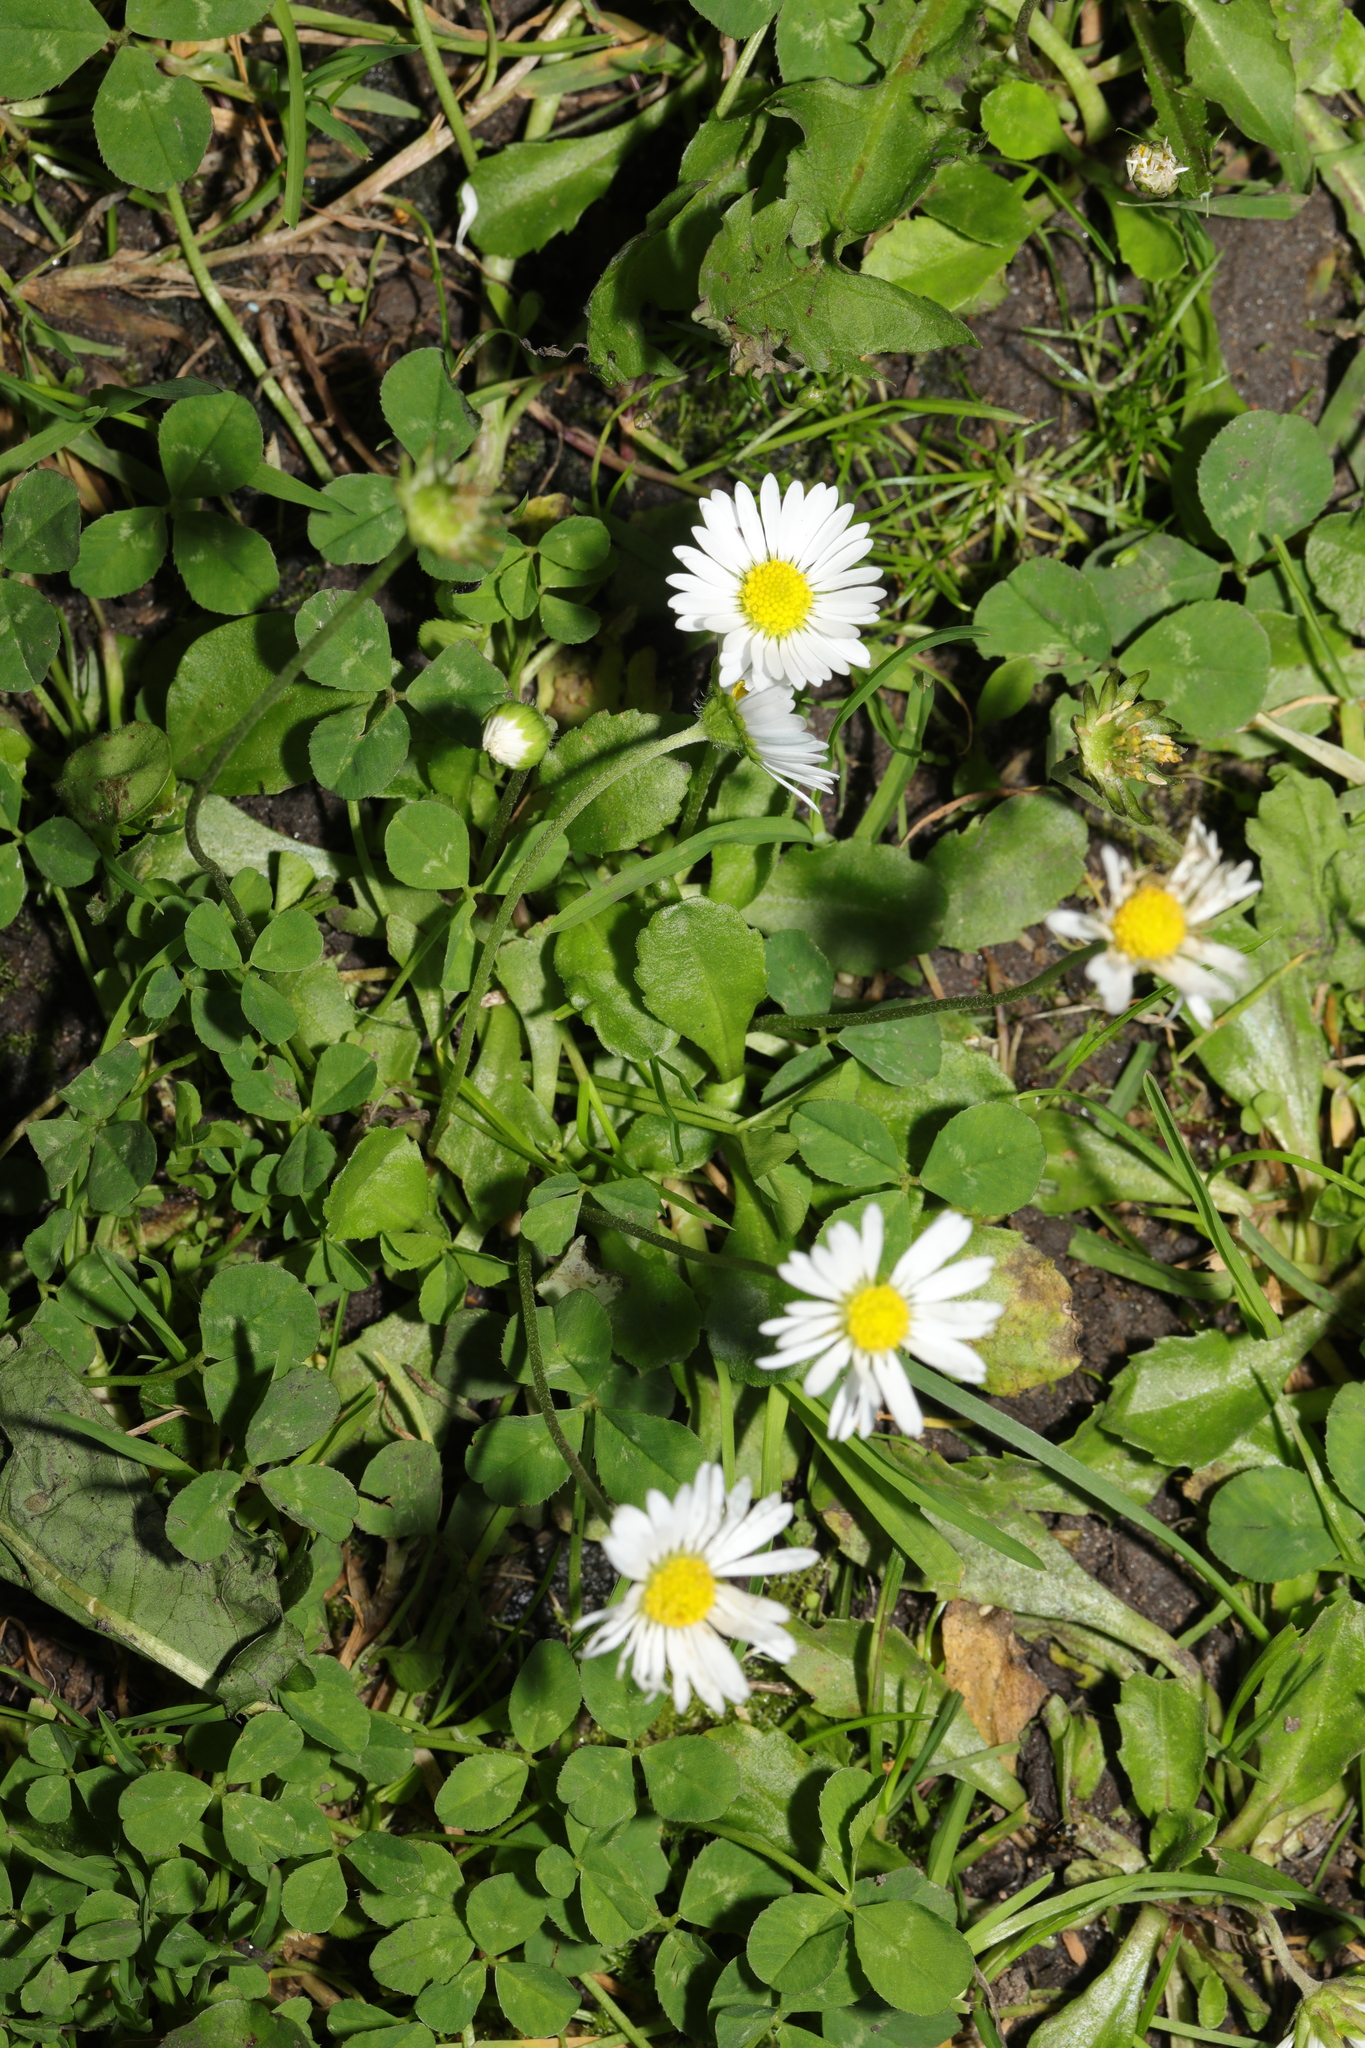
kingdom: Plantae
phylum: Tracheophyta
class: Magnoliopsida
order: Asterales
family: Asteraceae
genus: Bellis
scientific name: Bellis perennis
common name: Lawndaisy
